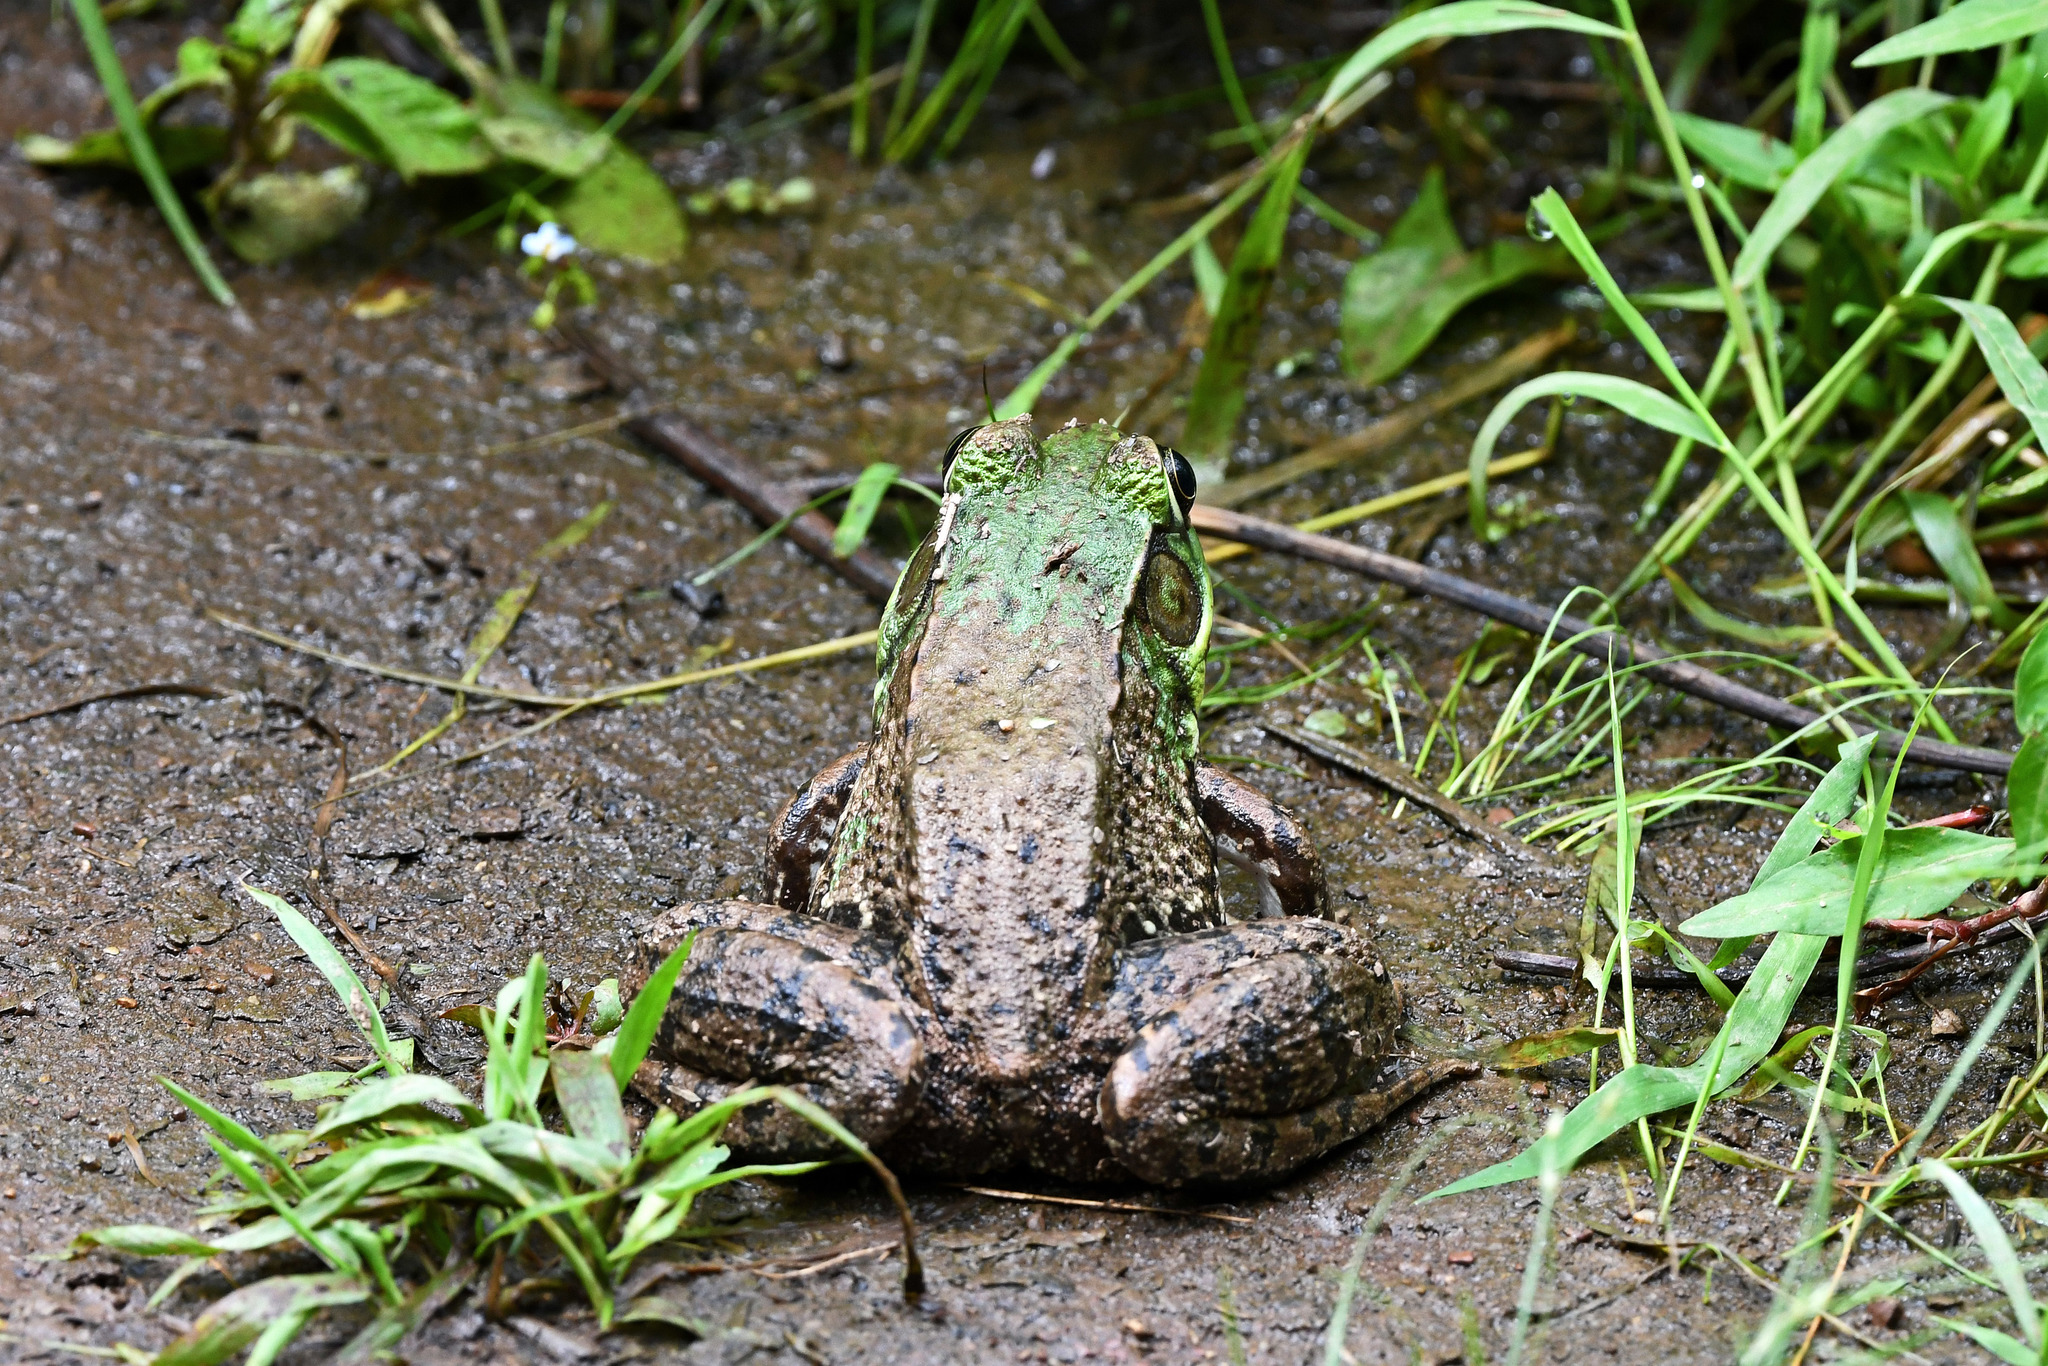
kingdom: Animalia
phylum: Chordata
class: Amphibia
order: Anura
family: Ranidae
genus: Lithobates
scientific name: Lithobates clamitans
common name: Green frog
